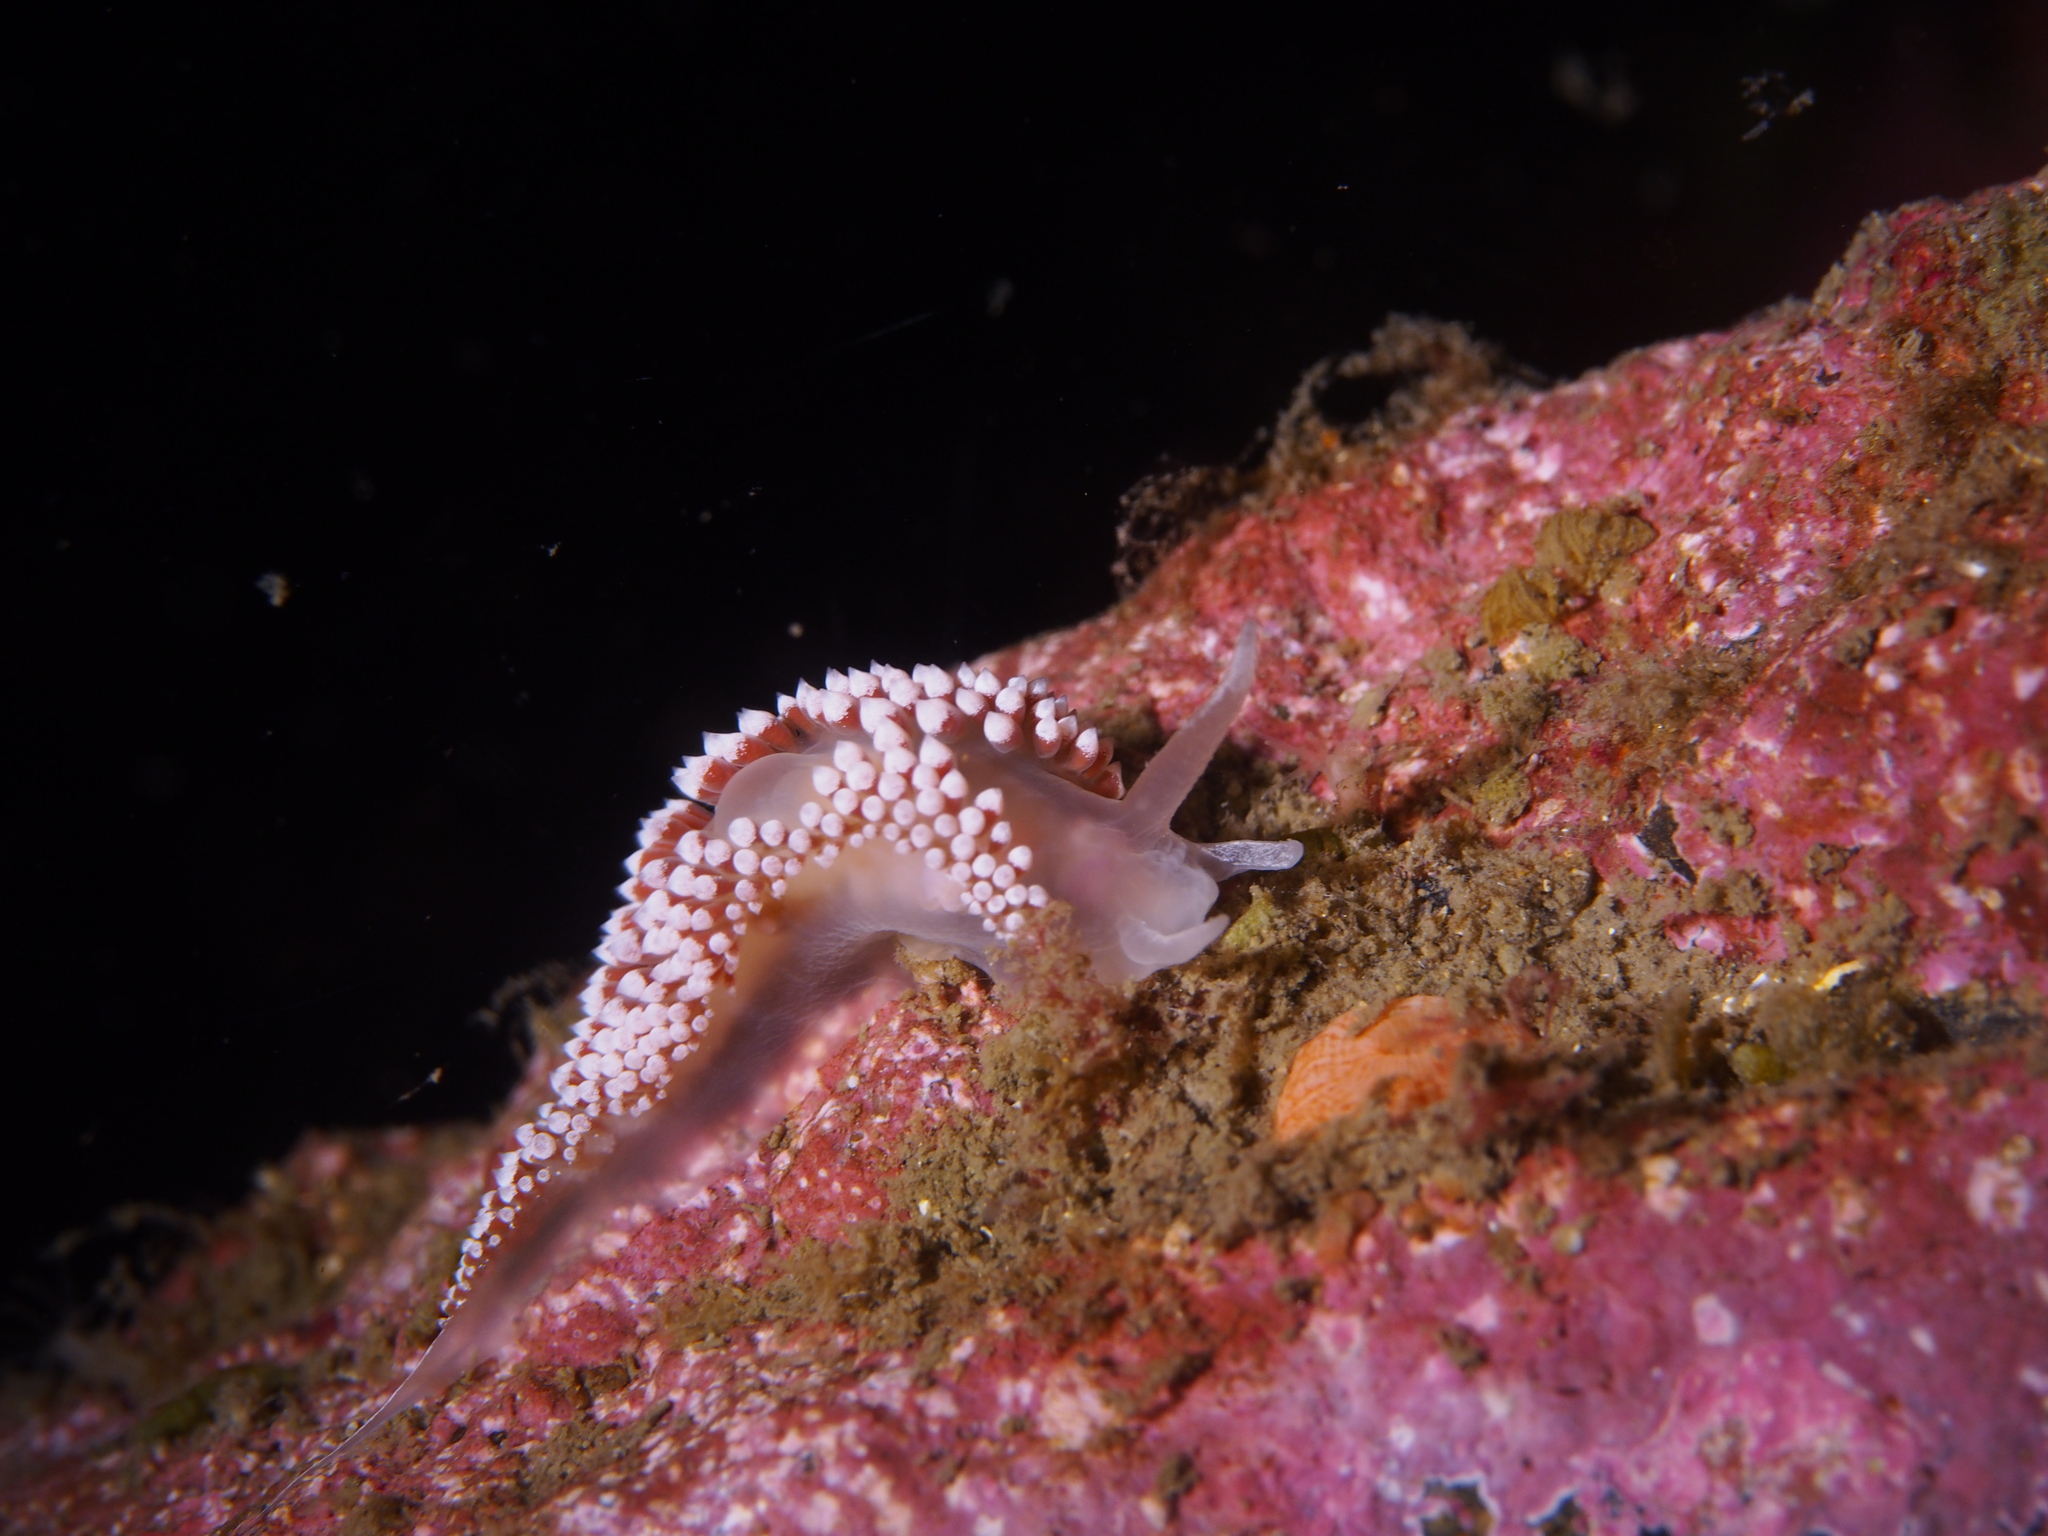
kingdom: Animalia
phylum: Mollusca
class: Gastropoda
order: Nudibranchia
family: Coryphellidae
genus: Coryphella
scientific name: Coryphella verrucosa
